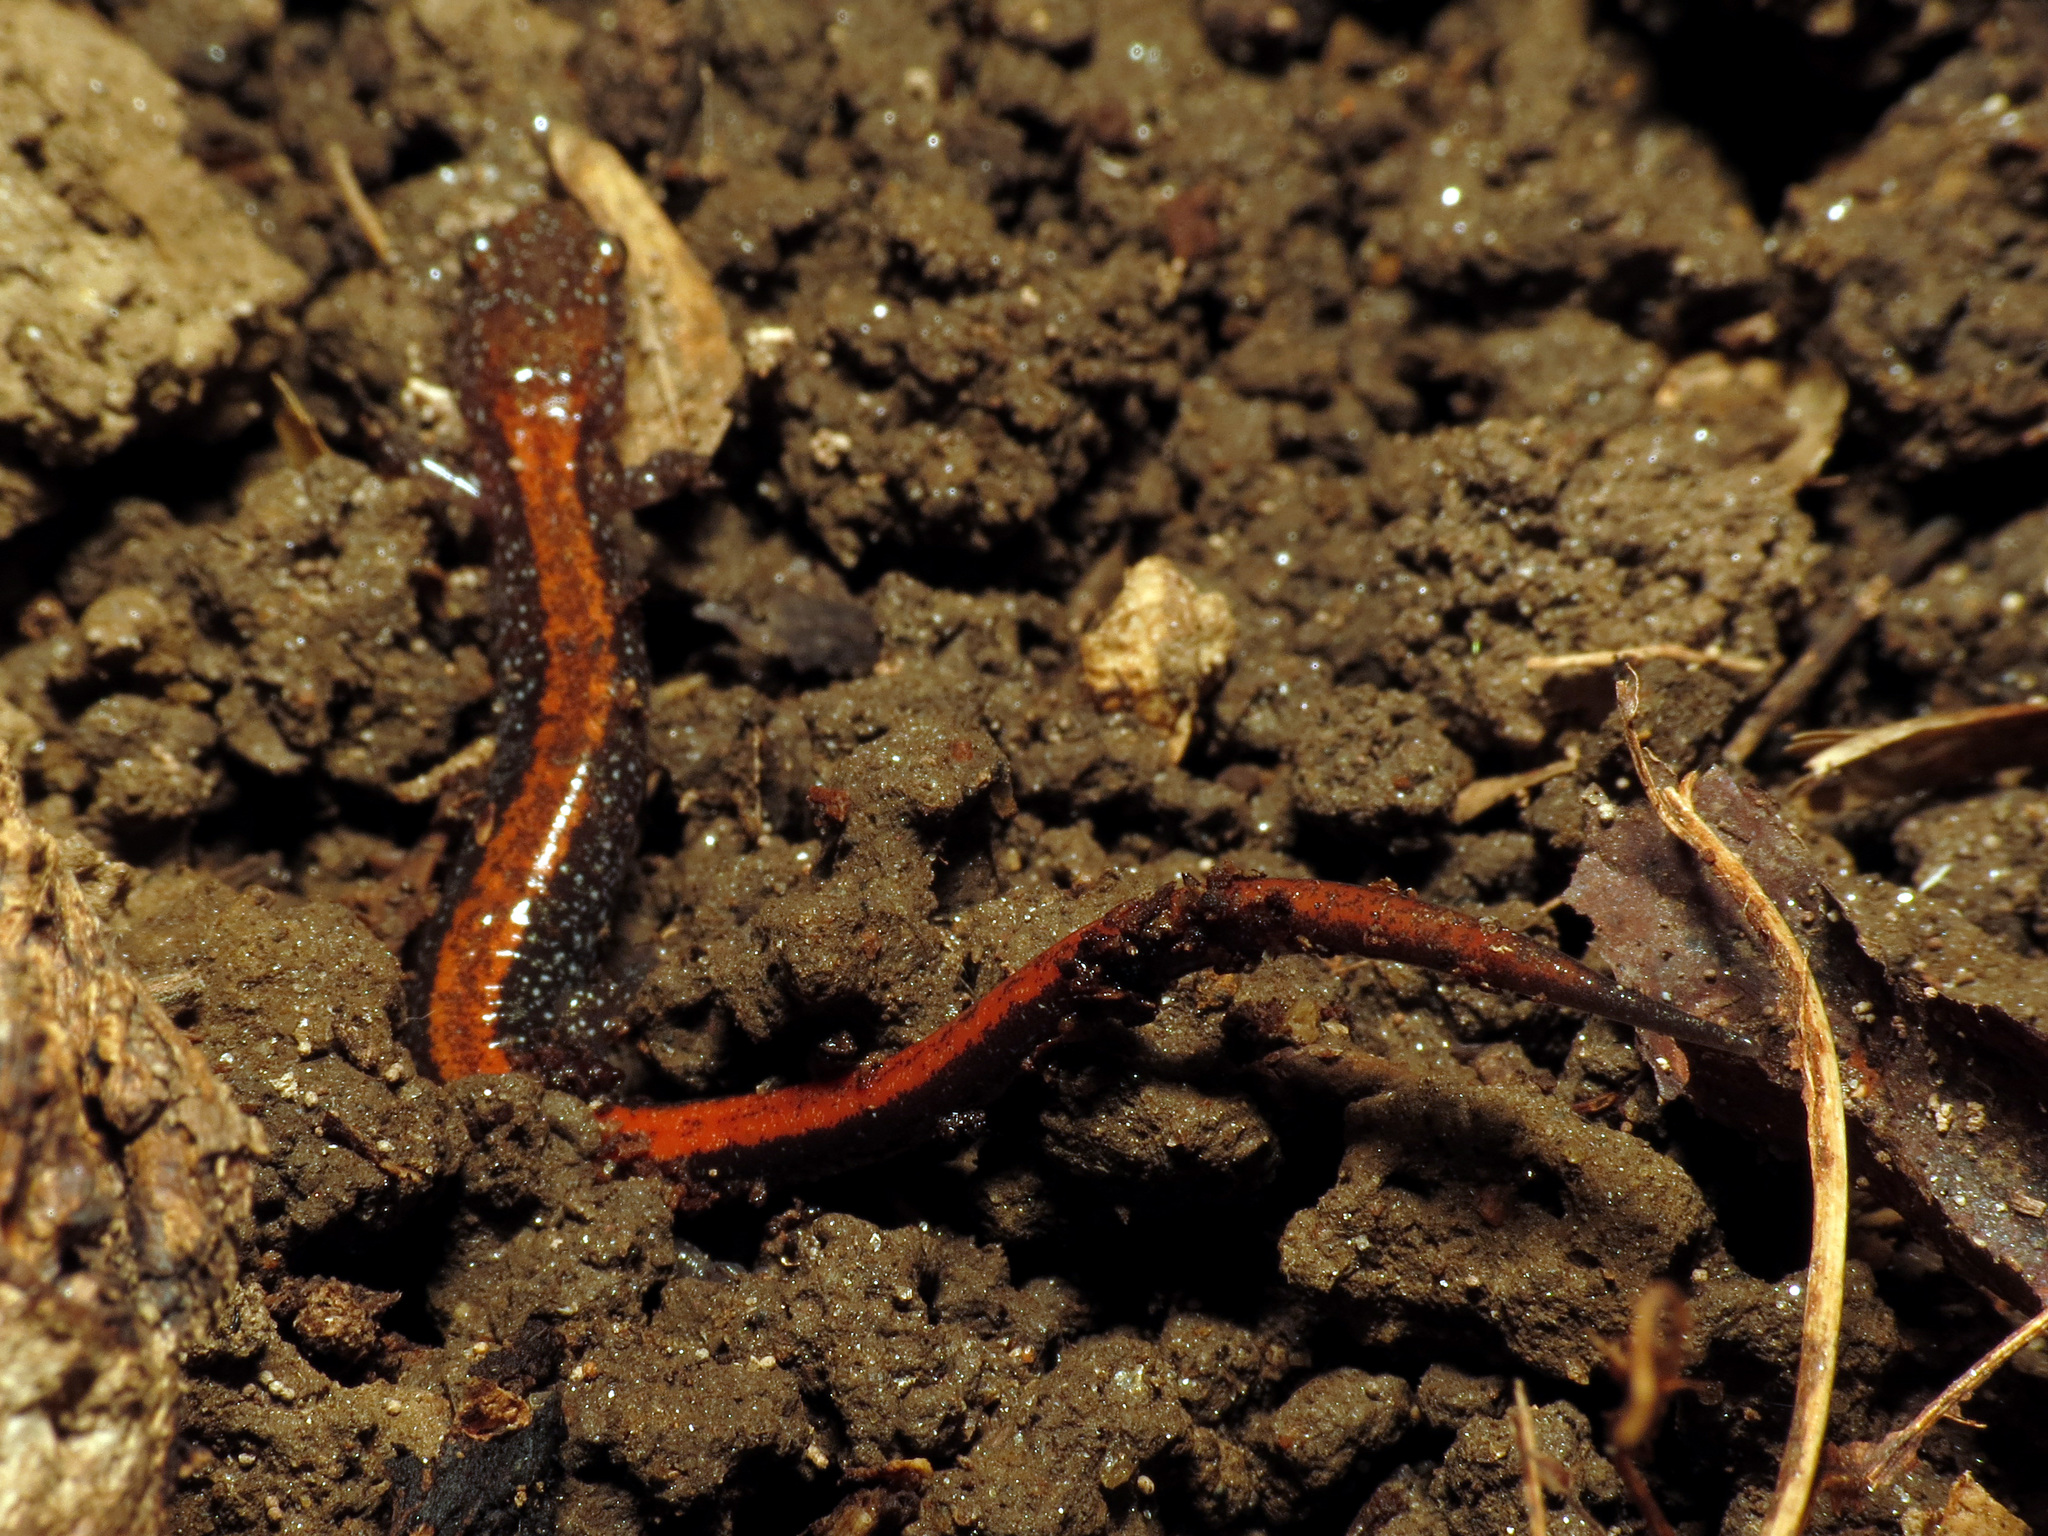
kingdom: Animalia
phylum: Chordata
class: Amphibia
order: Caudata
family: Plethodontidae
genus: Plethodon
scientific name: Plethodon cinereus
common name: Redback salamander
